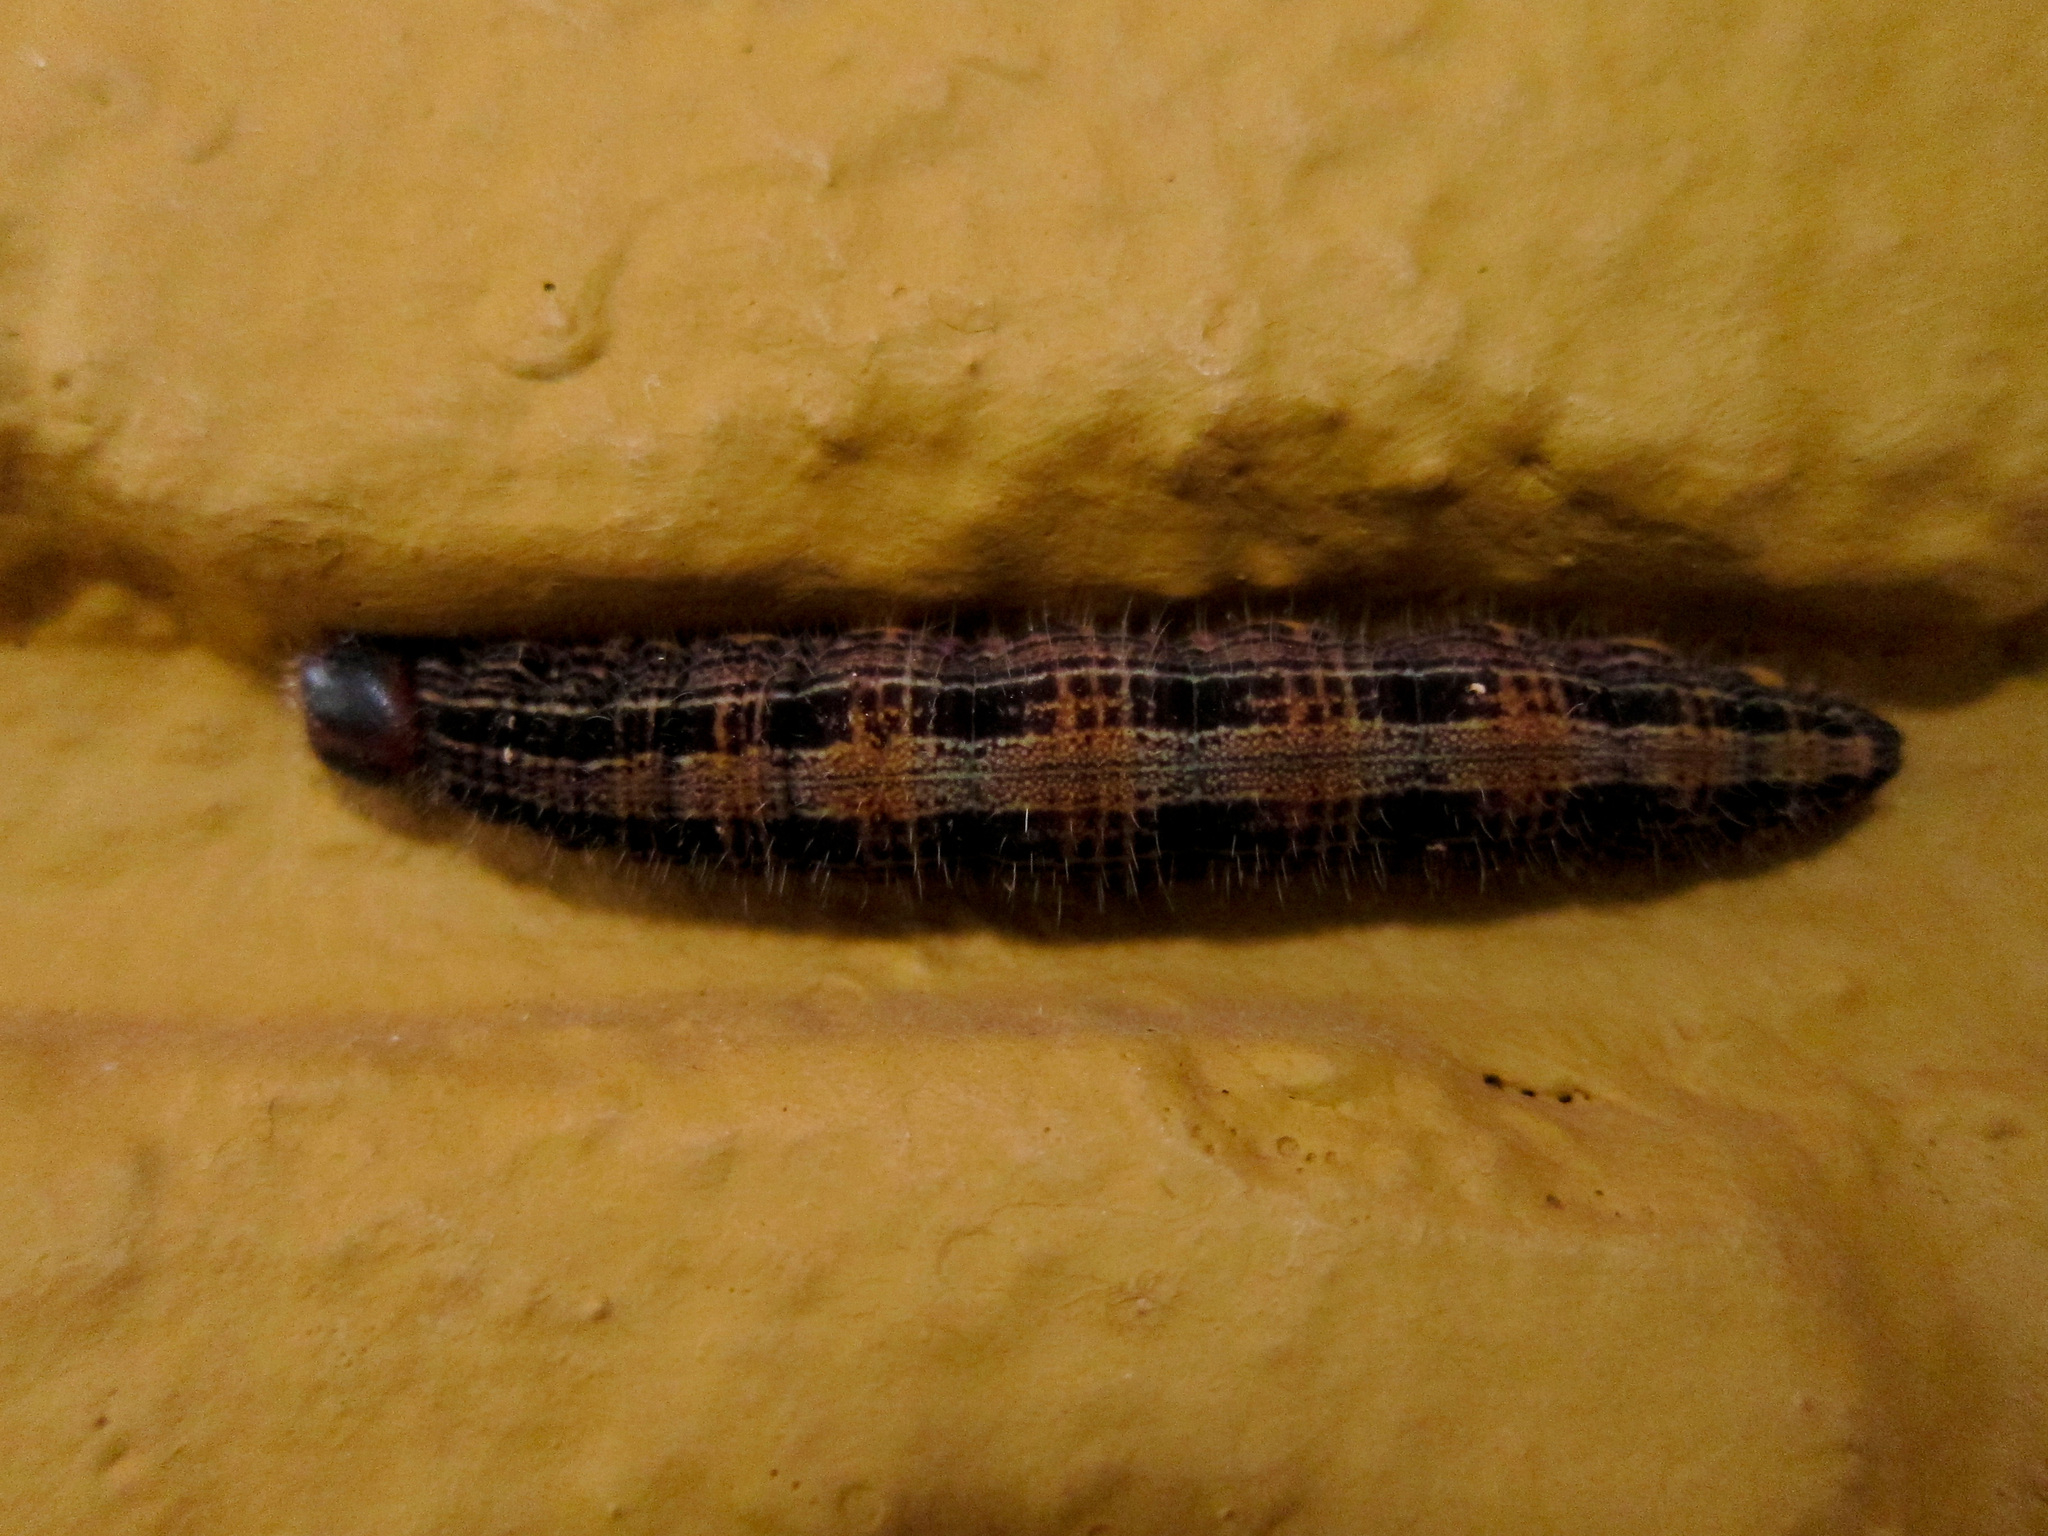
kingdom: Animalia
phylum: Arthropoda
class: Insecta
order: Lepidoptera
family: Nymphalidae
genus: Brassolis
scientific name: Brassolis sophorae
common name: Coconut caterpillar
